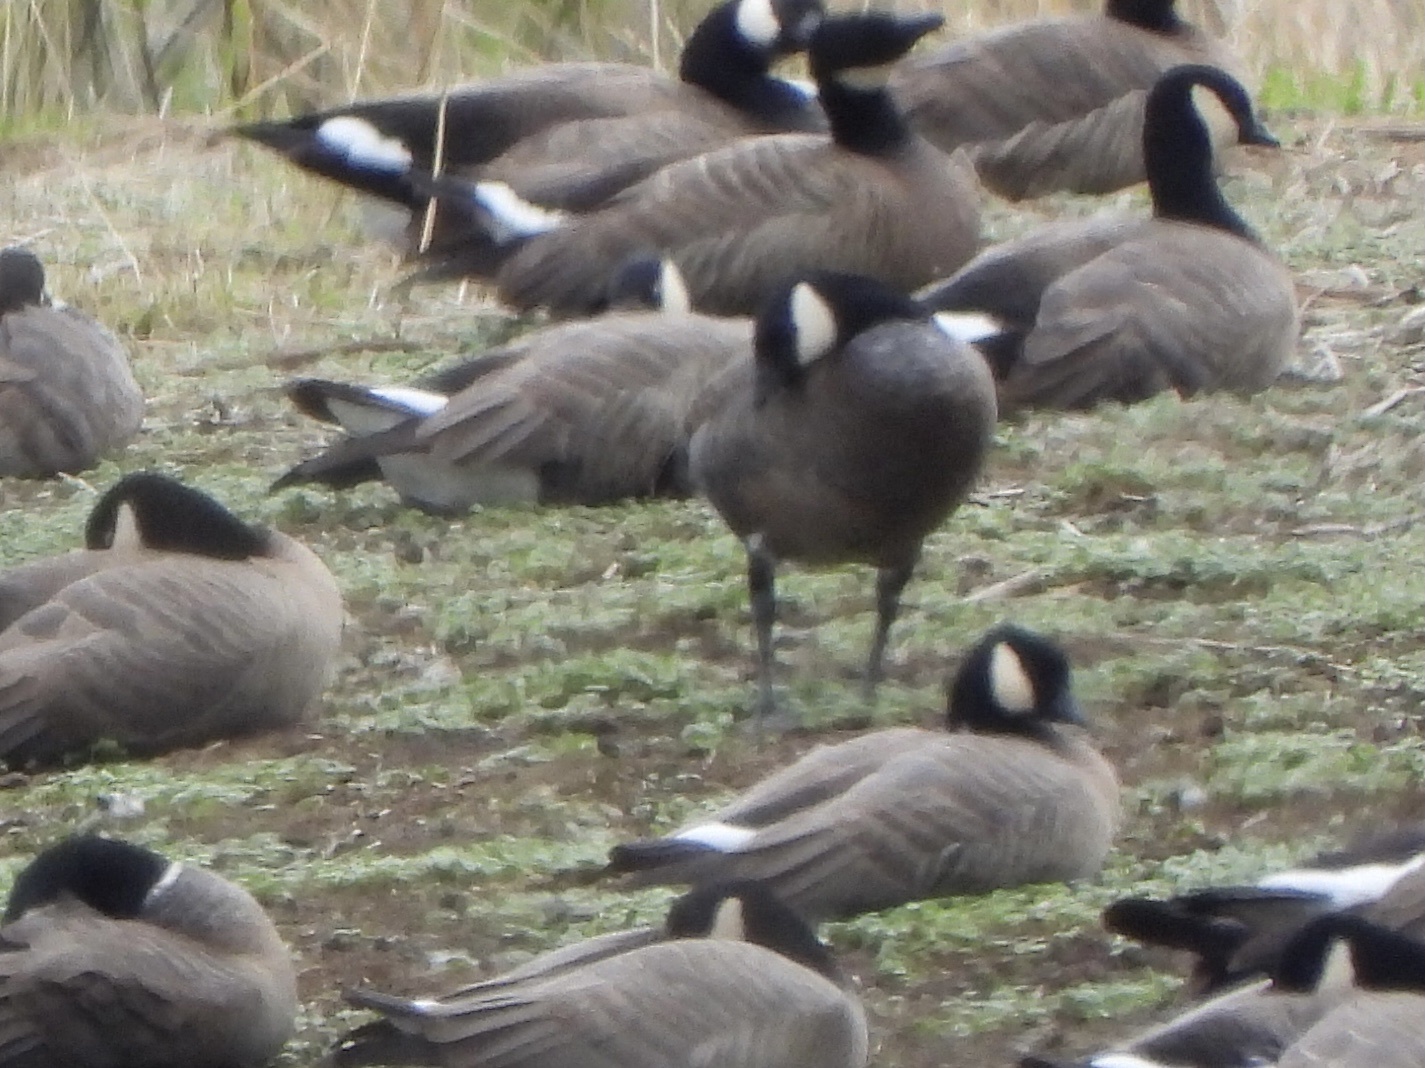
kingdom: Animalia
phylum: Chordata
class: Aves
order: Anseriformes
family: Anatidae
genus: Branta
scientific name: Branta hutchinsii
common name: Cackling goose
